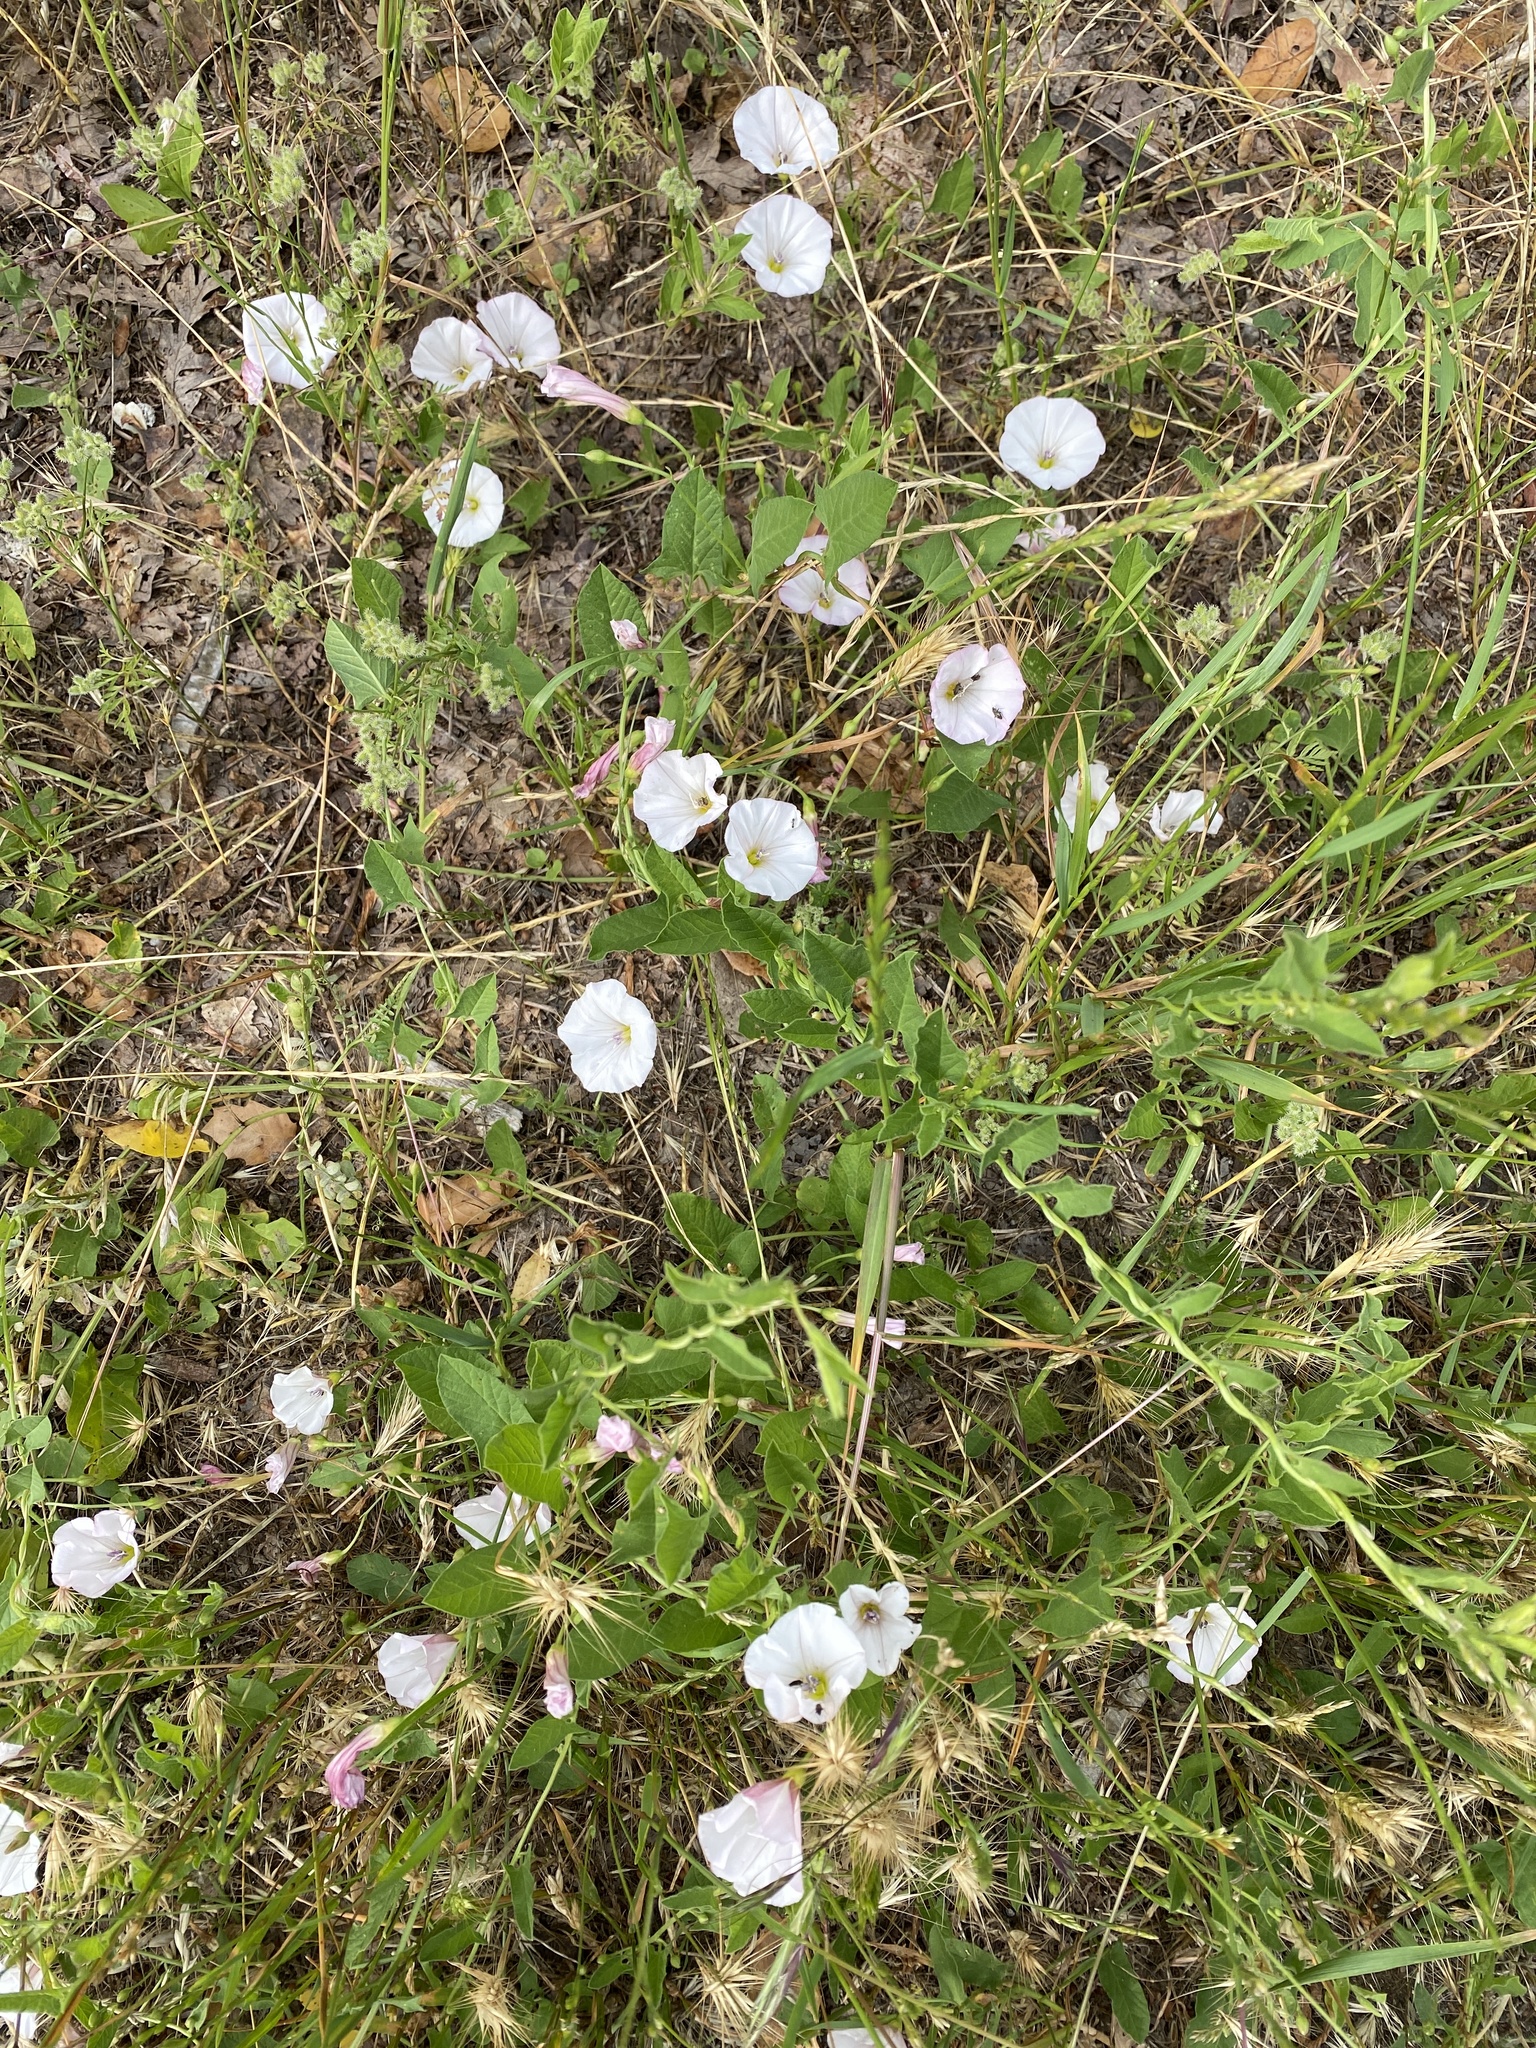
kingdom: Plantae
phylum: Tracheophyta
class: Magnoliopsida
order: Solanales
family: Convolvulaceae
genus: Convolvulus
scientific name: Convolvulus arvensis
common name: Field bindweed
